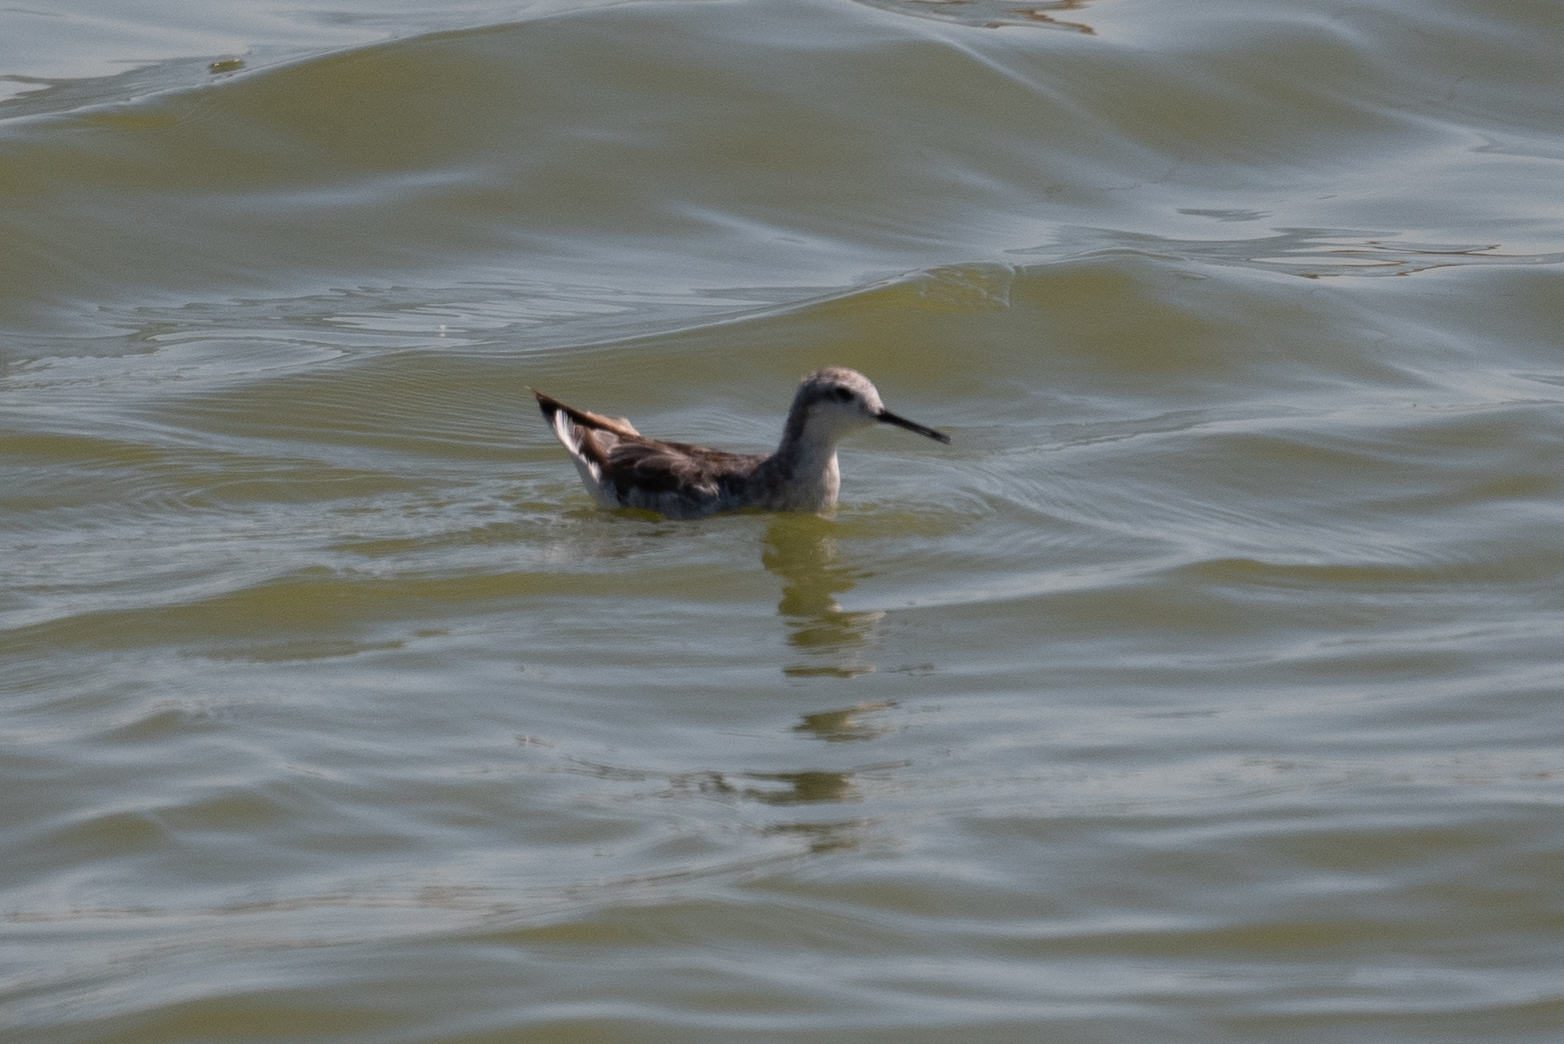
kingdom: Animalia
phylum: Chordata
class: Aves
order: Charadriiformes
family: Scolopacidae
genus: Phalaropus
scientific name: Phalaropus tricolor
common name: Wilson's phalarope
